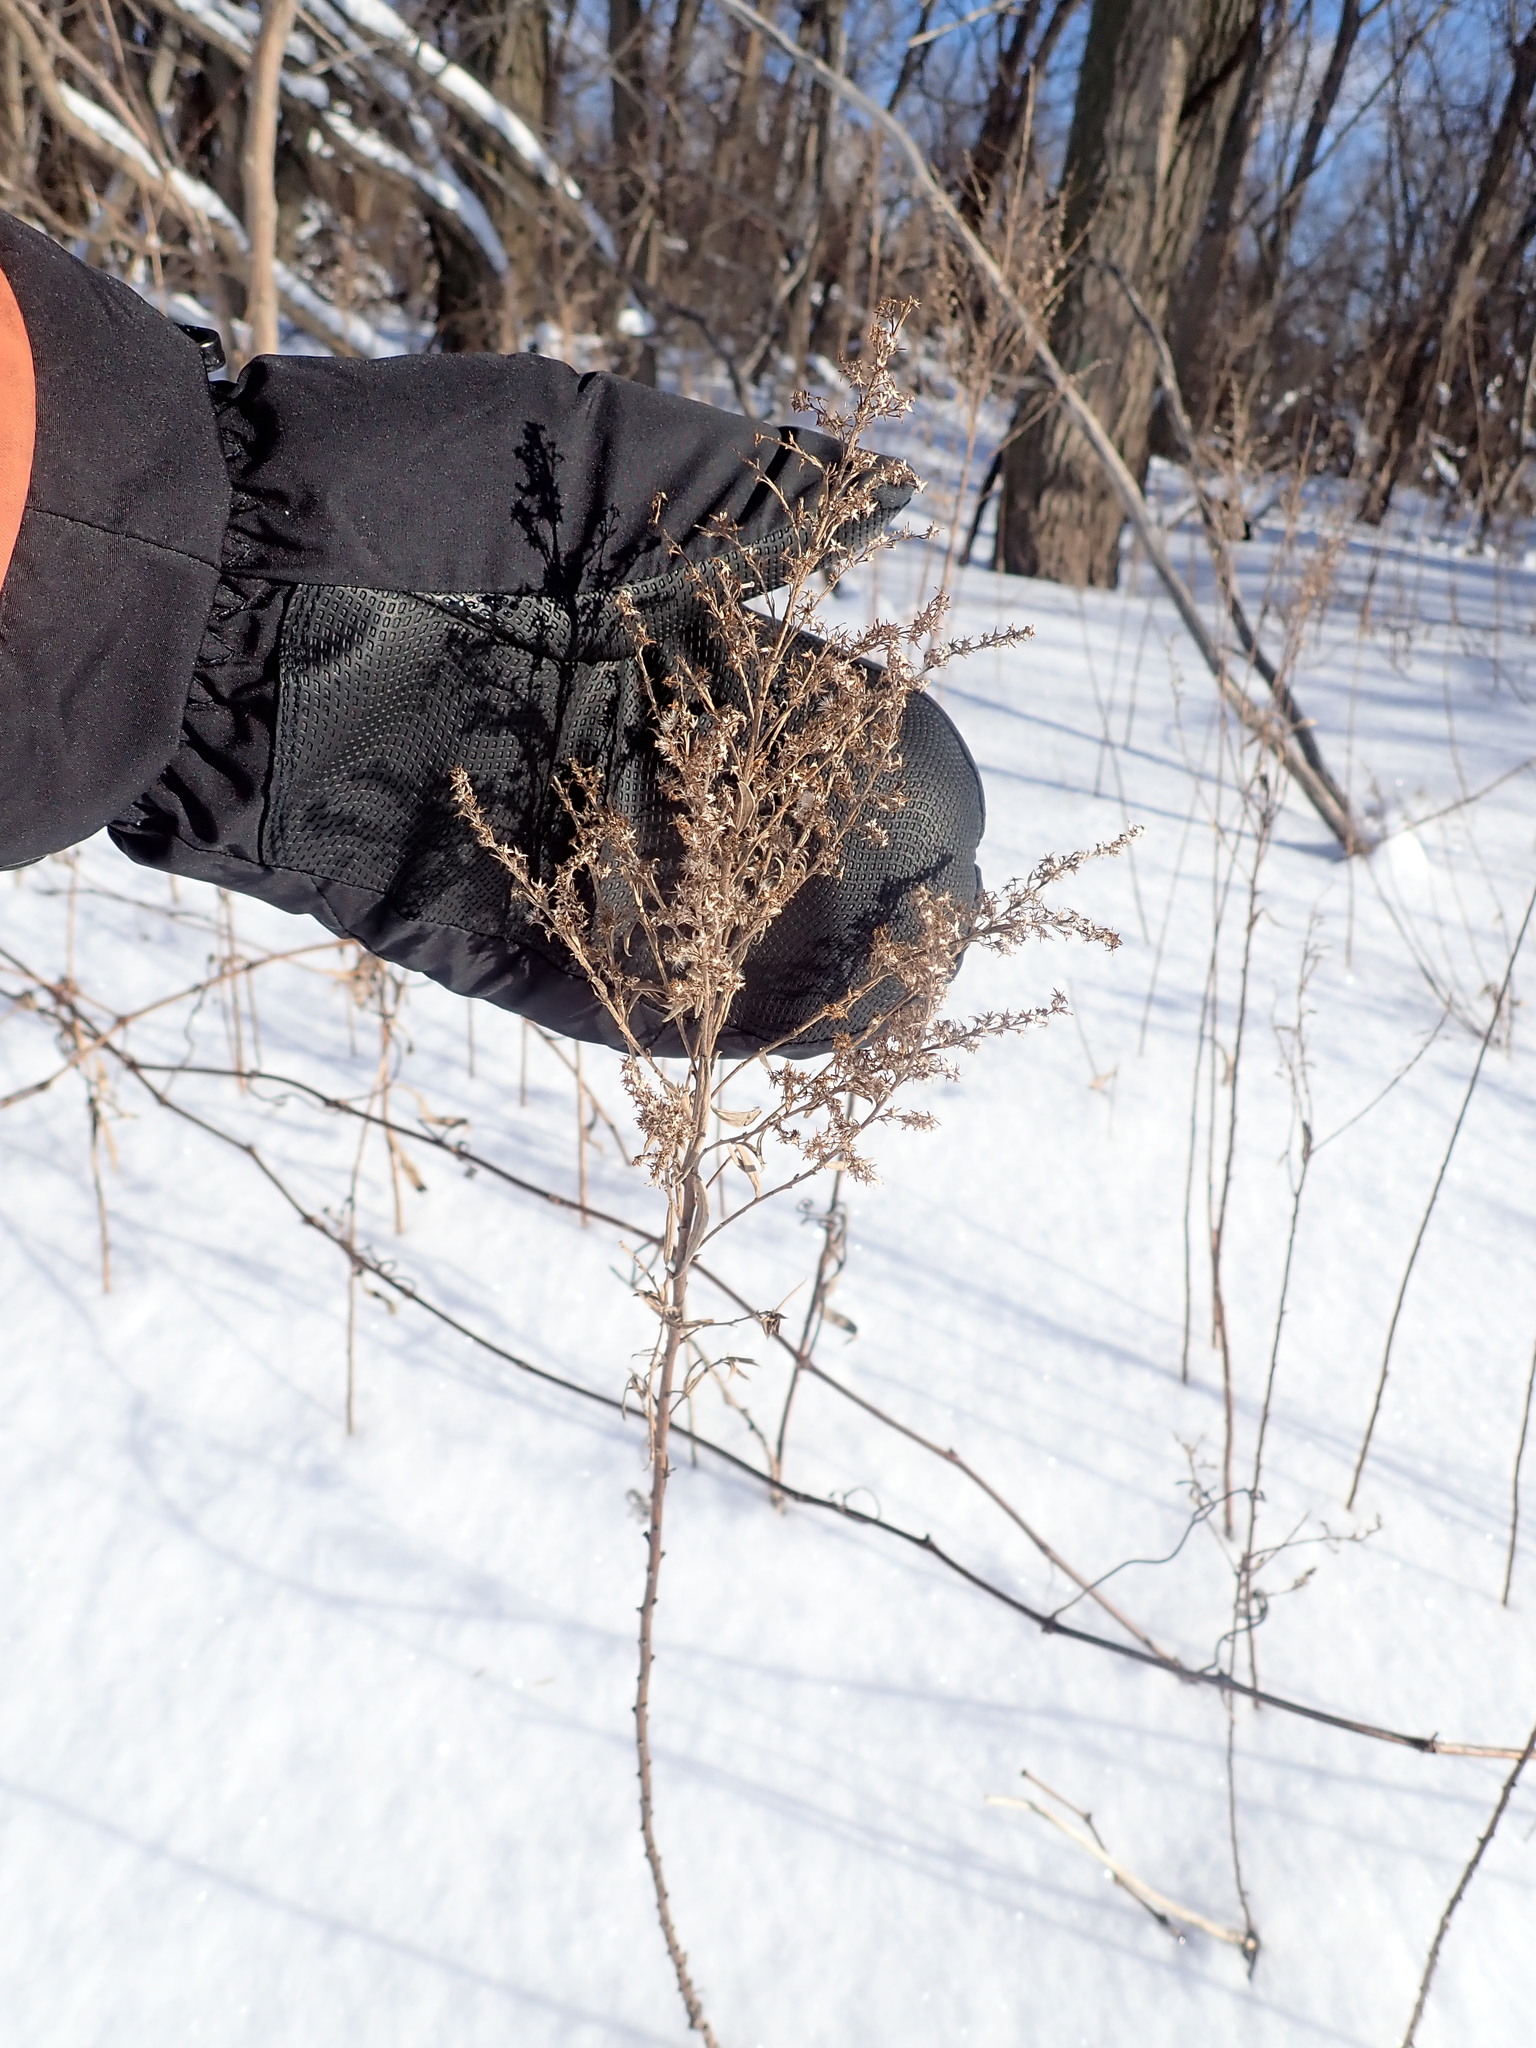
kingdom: Plantae
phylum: Tracheophyta
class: Magnoliopsida
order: Asterales
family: Asteraceae
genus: Solidago
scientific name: Solidago canadensis
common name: Canada goldenrod
